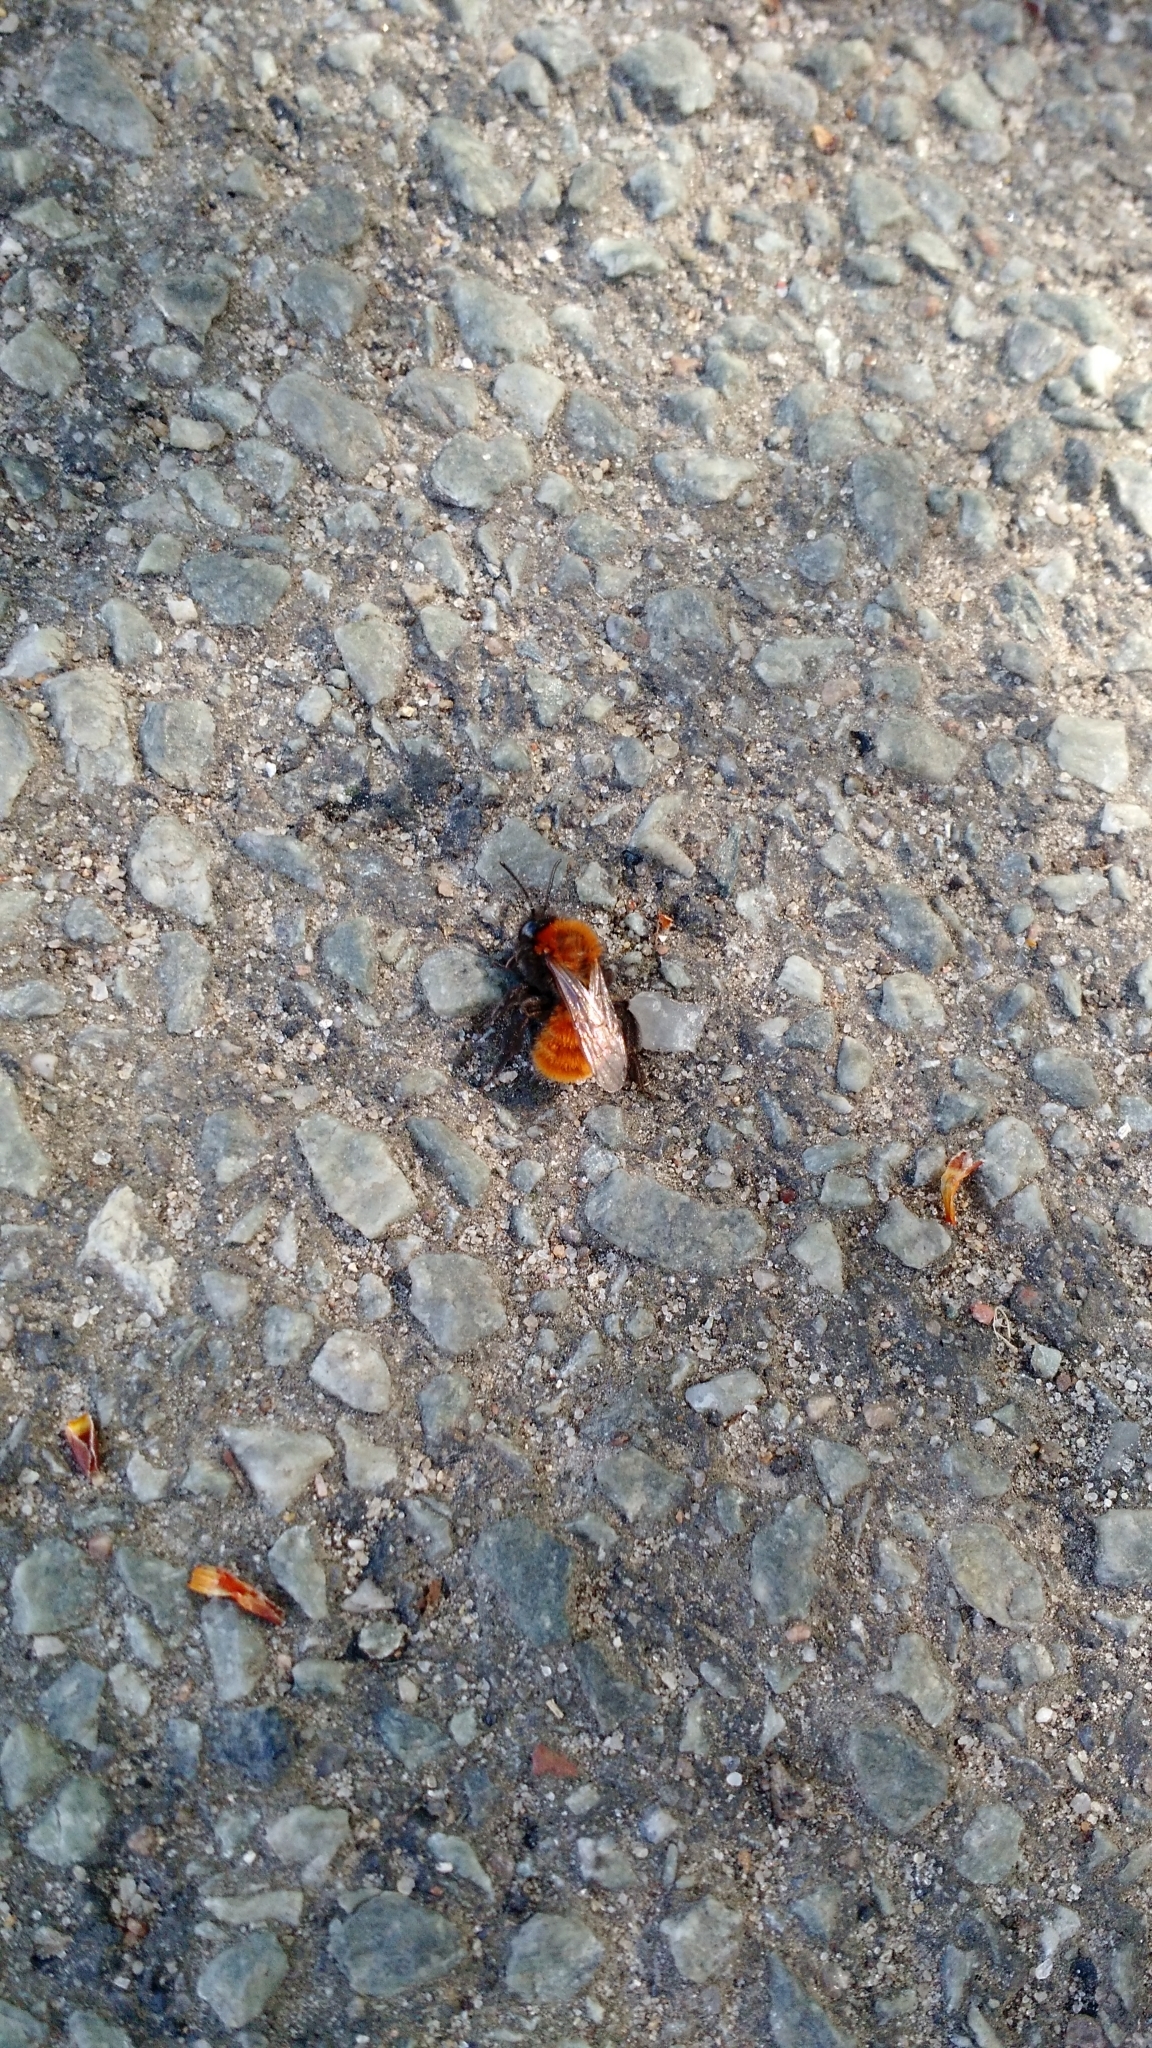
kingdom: Animalia
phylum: Arthropoda
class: Insecta
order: Hymenoptera
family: Andrenidae
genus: Andrena
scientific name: Andrena fulva
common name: Tawny mining bee
